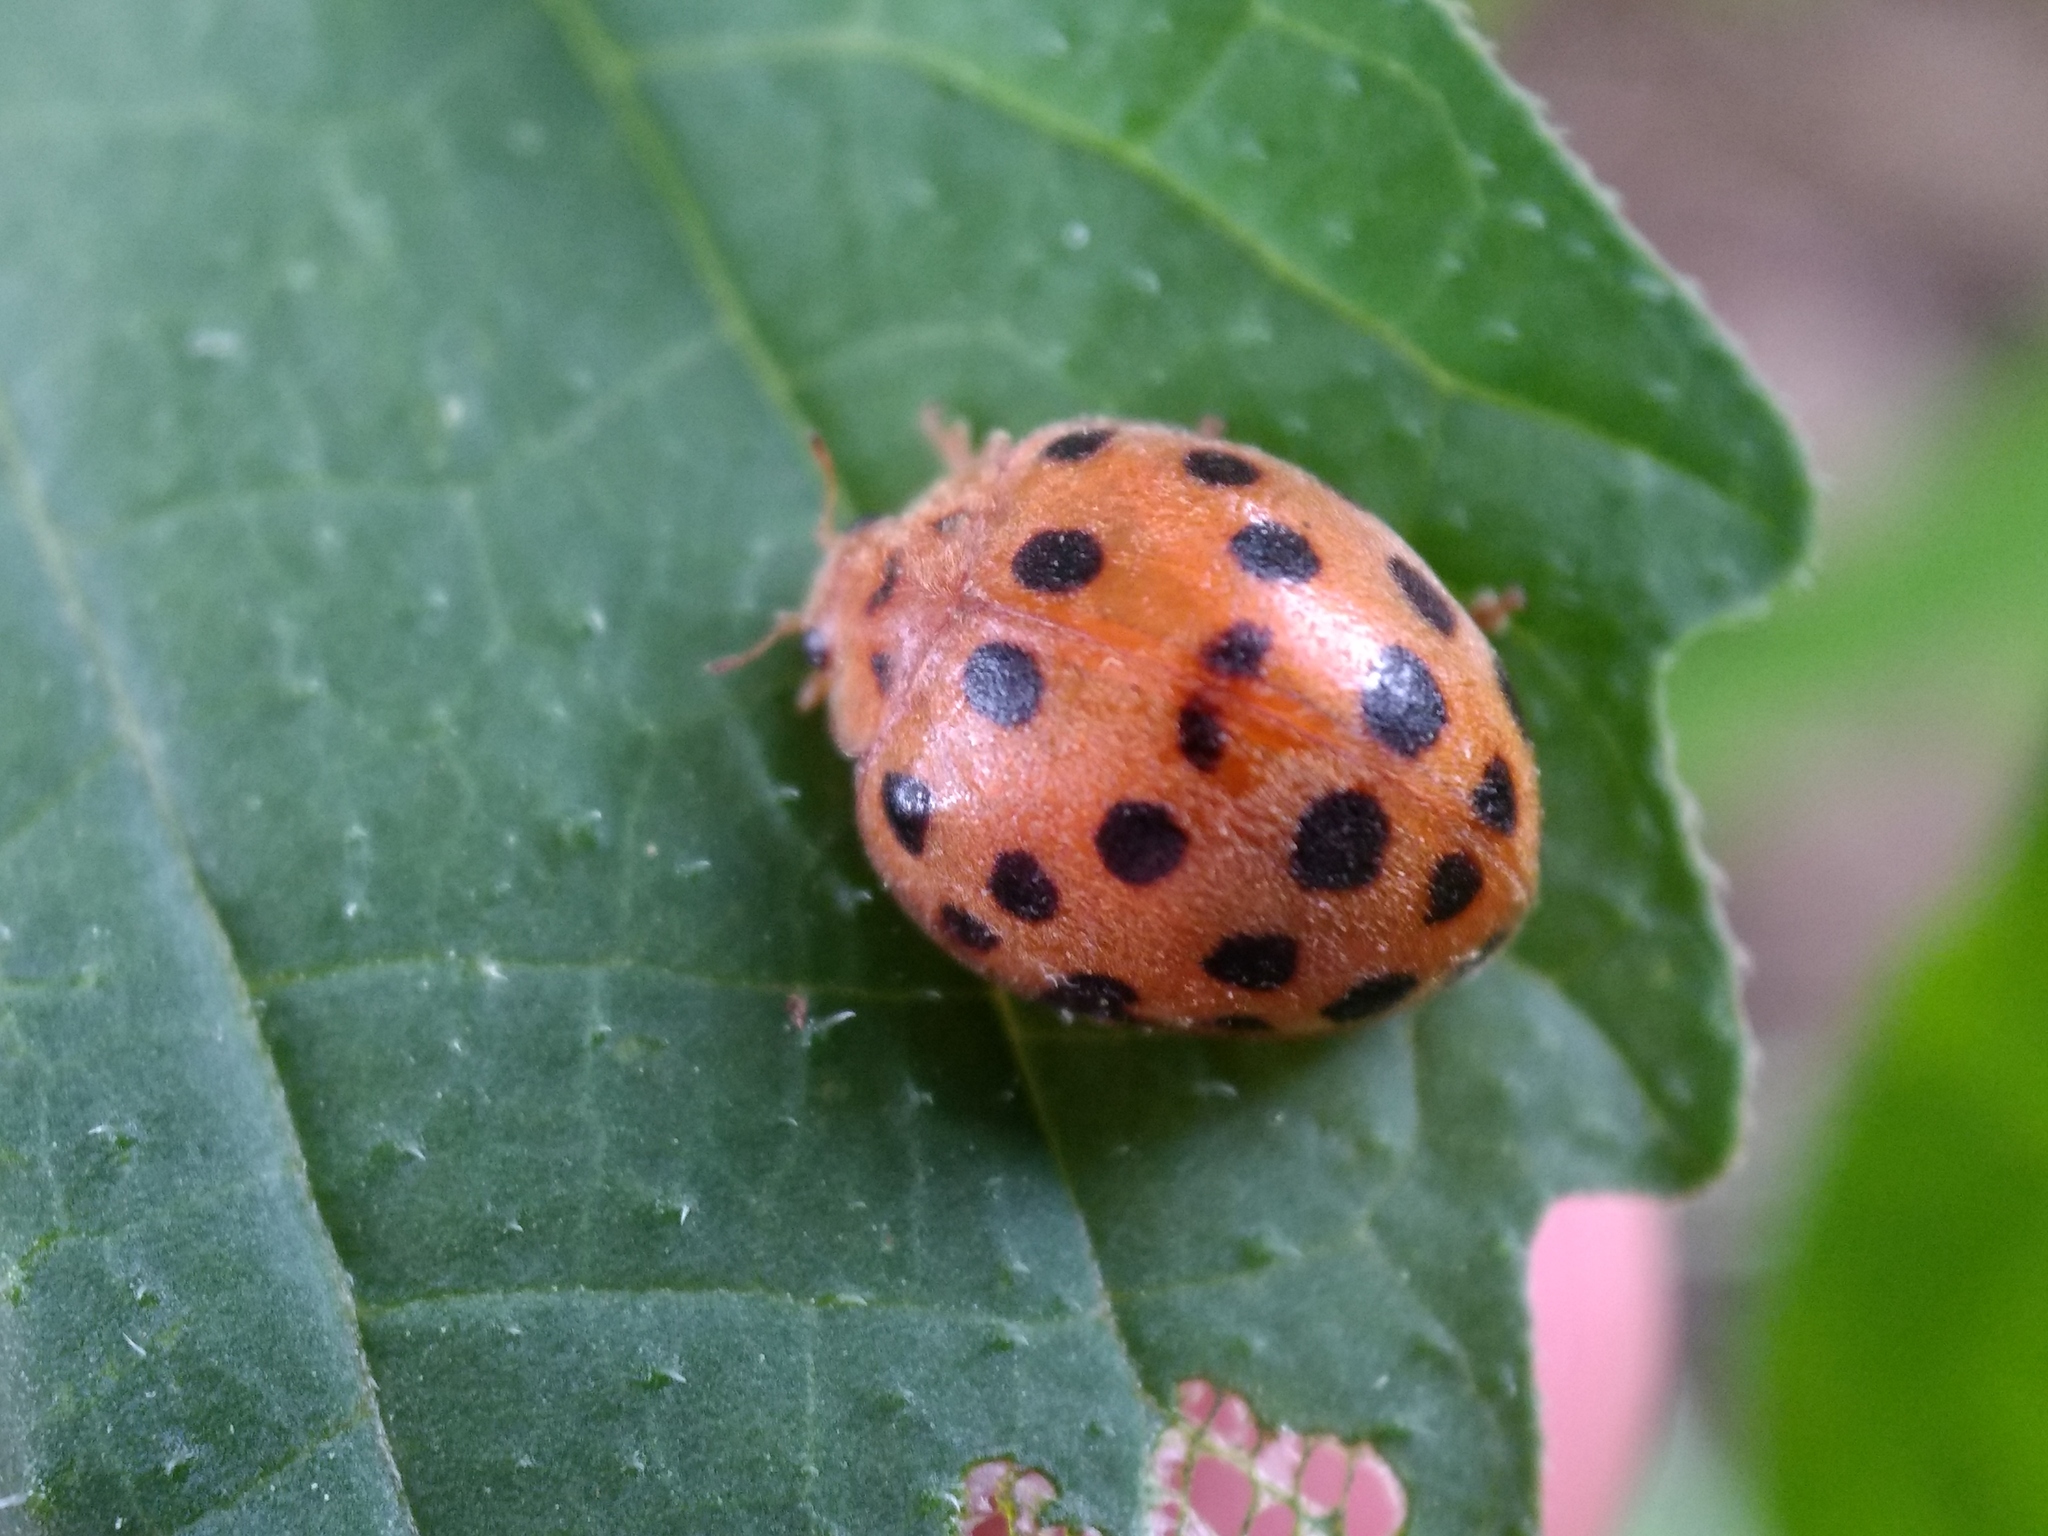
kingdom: Animalia
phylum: Arthropoda
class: Insecta
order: Coleoptera
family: Coccinellidae
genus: Henosepilachna
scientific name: Henosepilachna vigintioctopunctata
